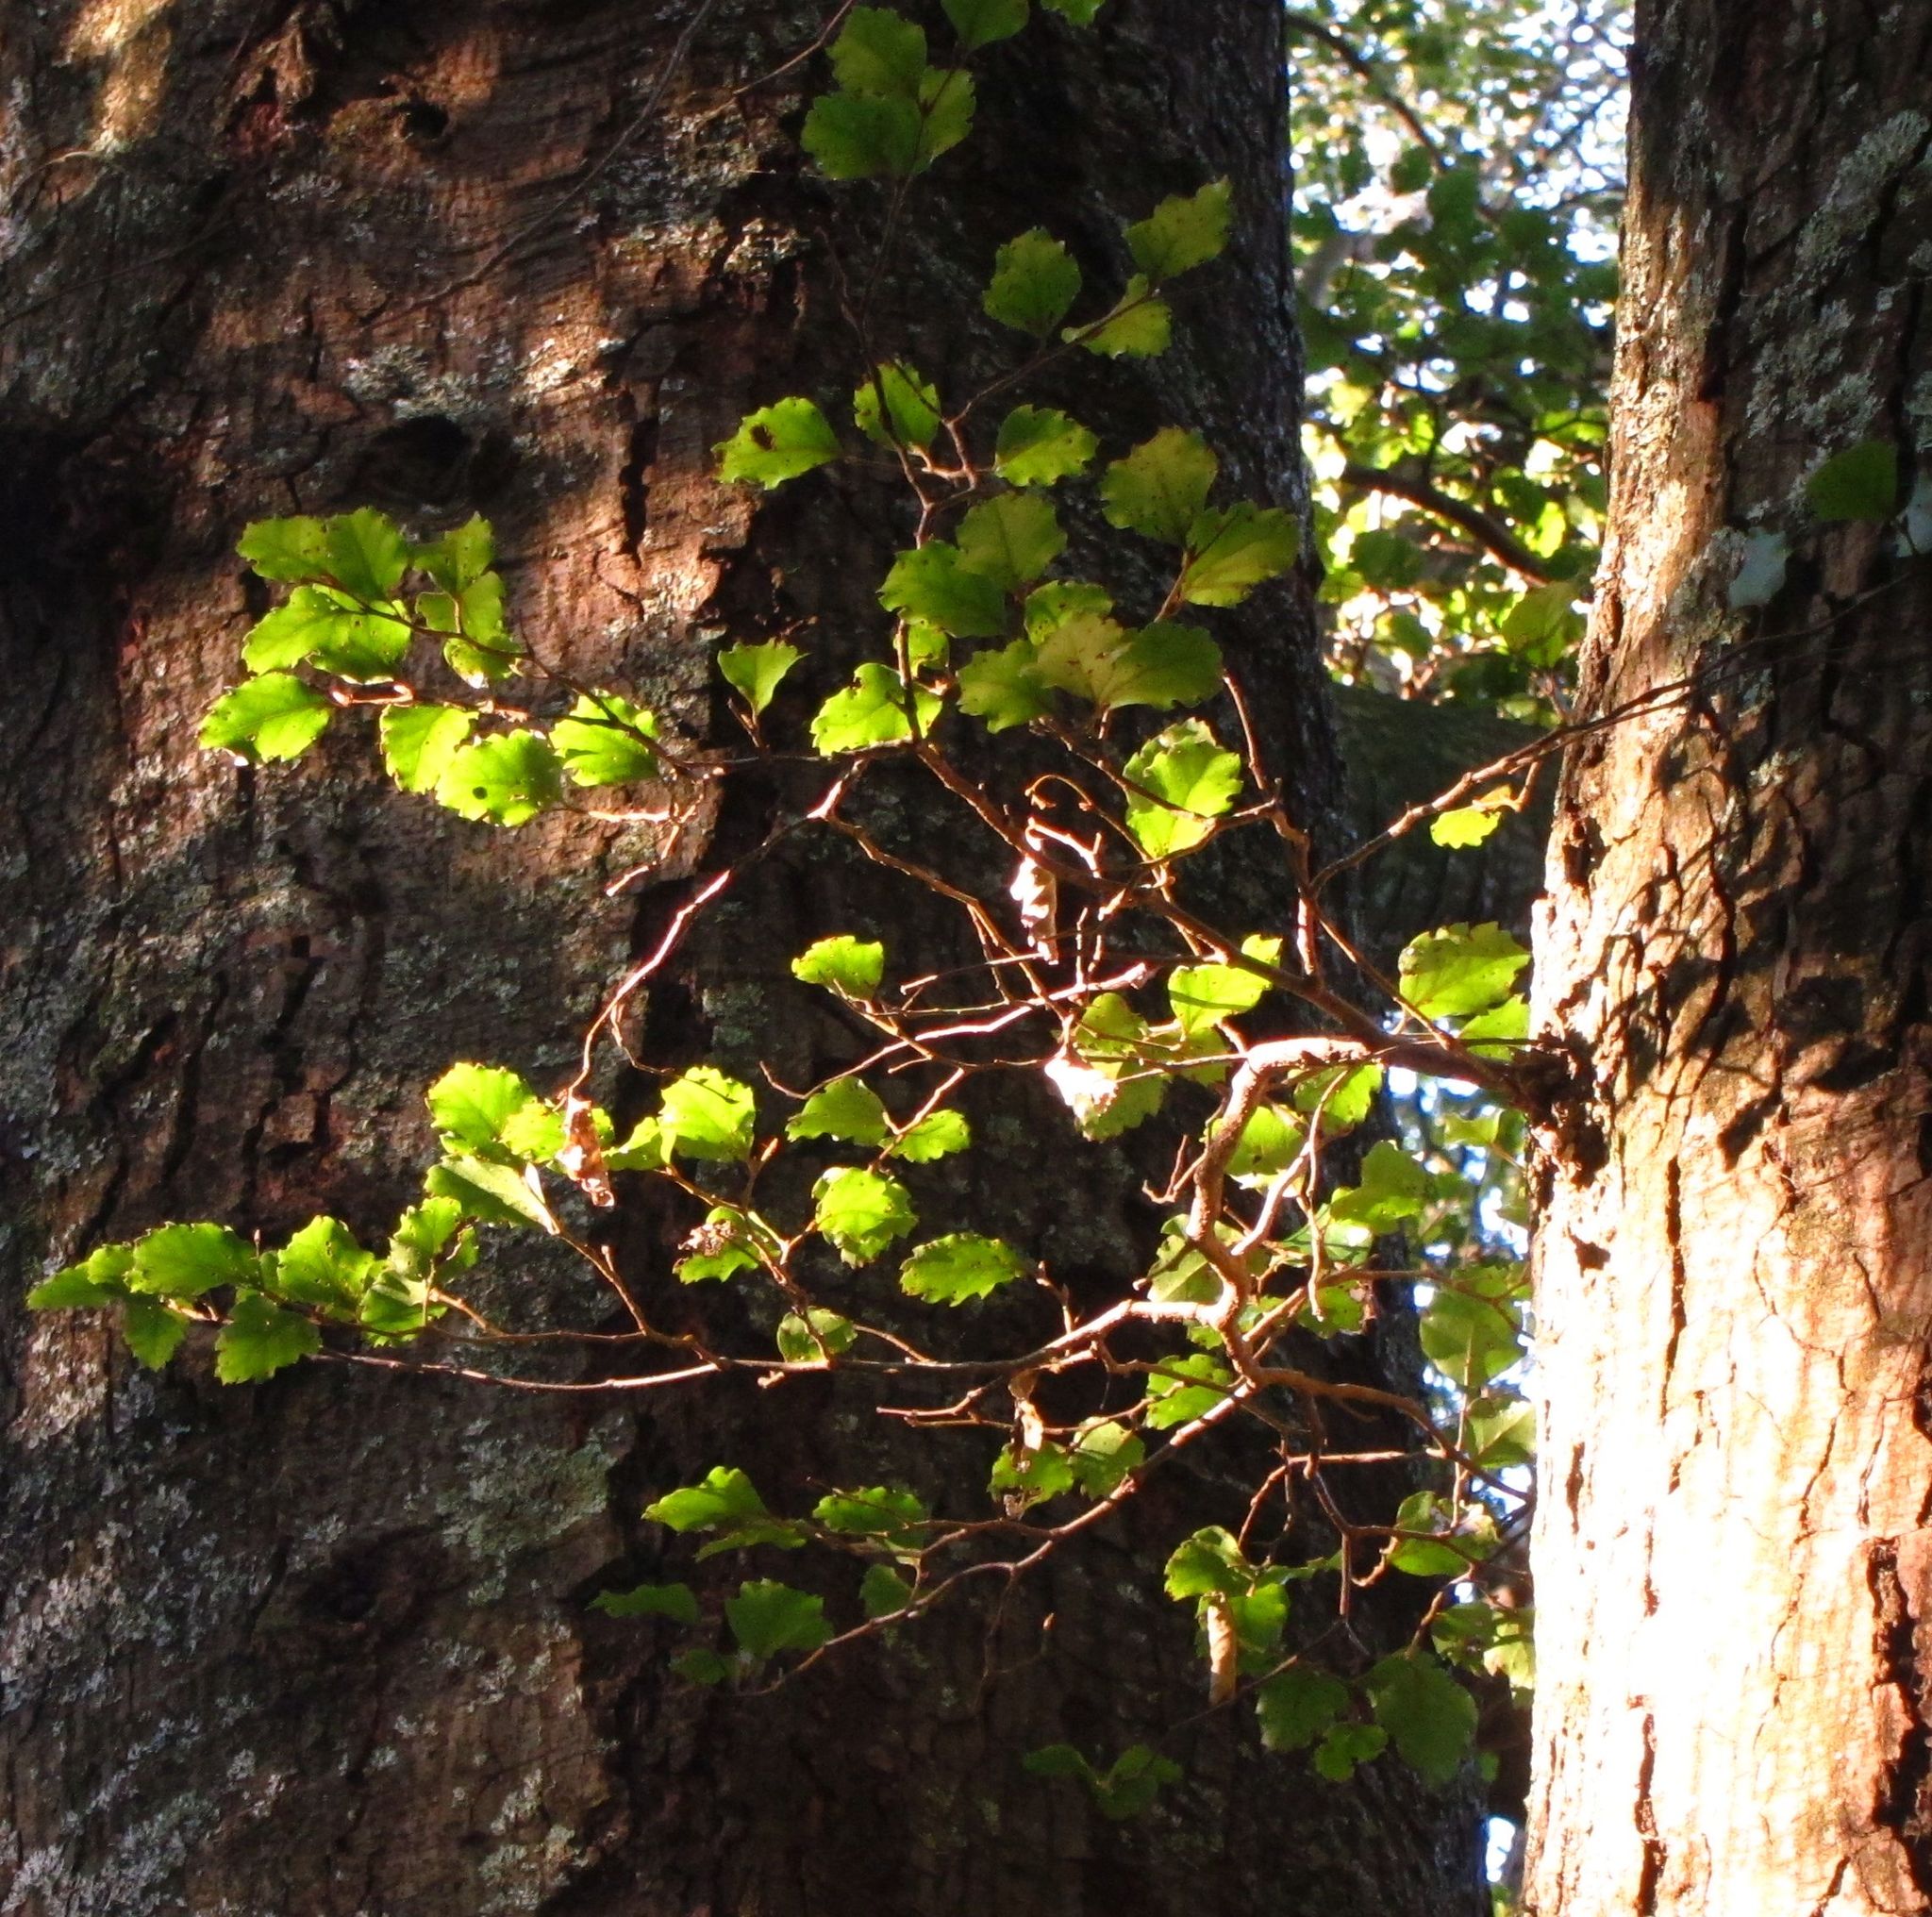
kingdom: Plantae
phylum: Tracheophyta
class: Magnoliopsida
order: Fagales
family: Nothofagaceae
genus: Nothofagus
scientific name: Nothofagus fusca
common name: Red beech
